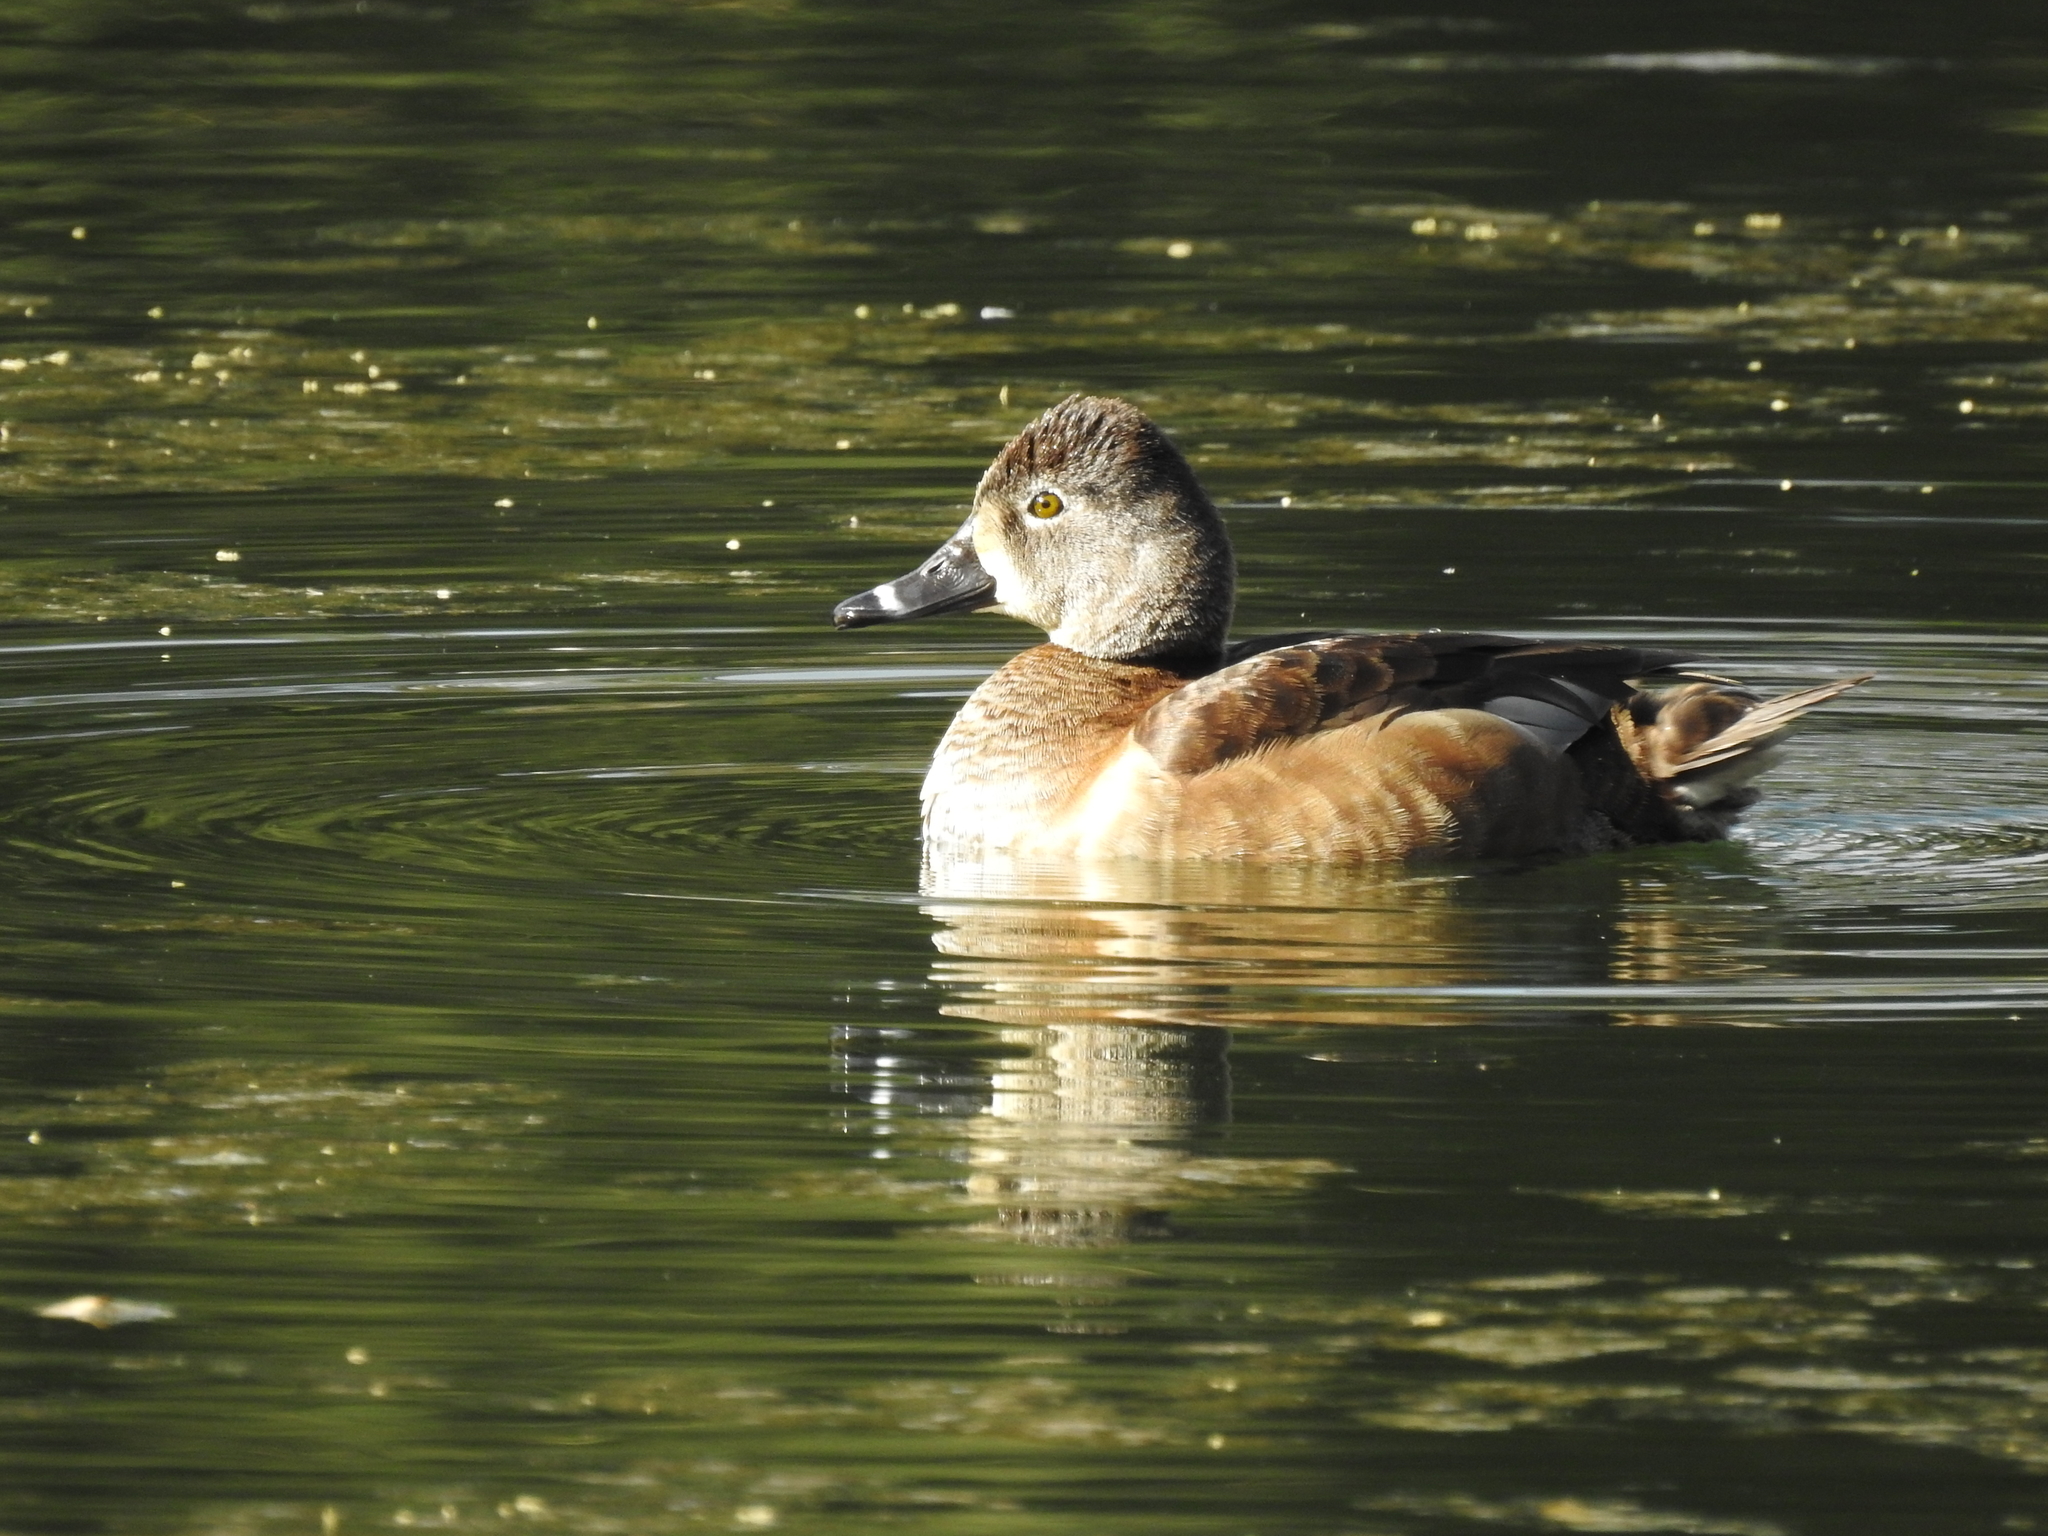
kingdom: Animalia
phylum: Chordata
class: Aves
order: Anseriformes
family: Anatidae
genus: Aythya
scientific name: Aythya collaris
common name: Ring-necked duck
